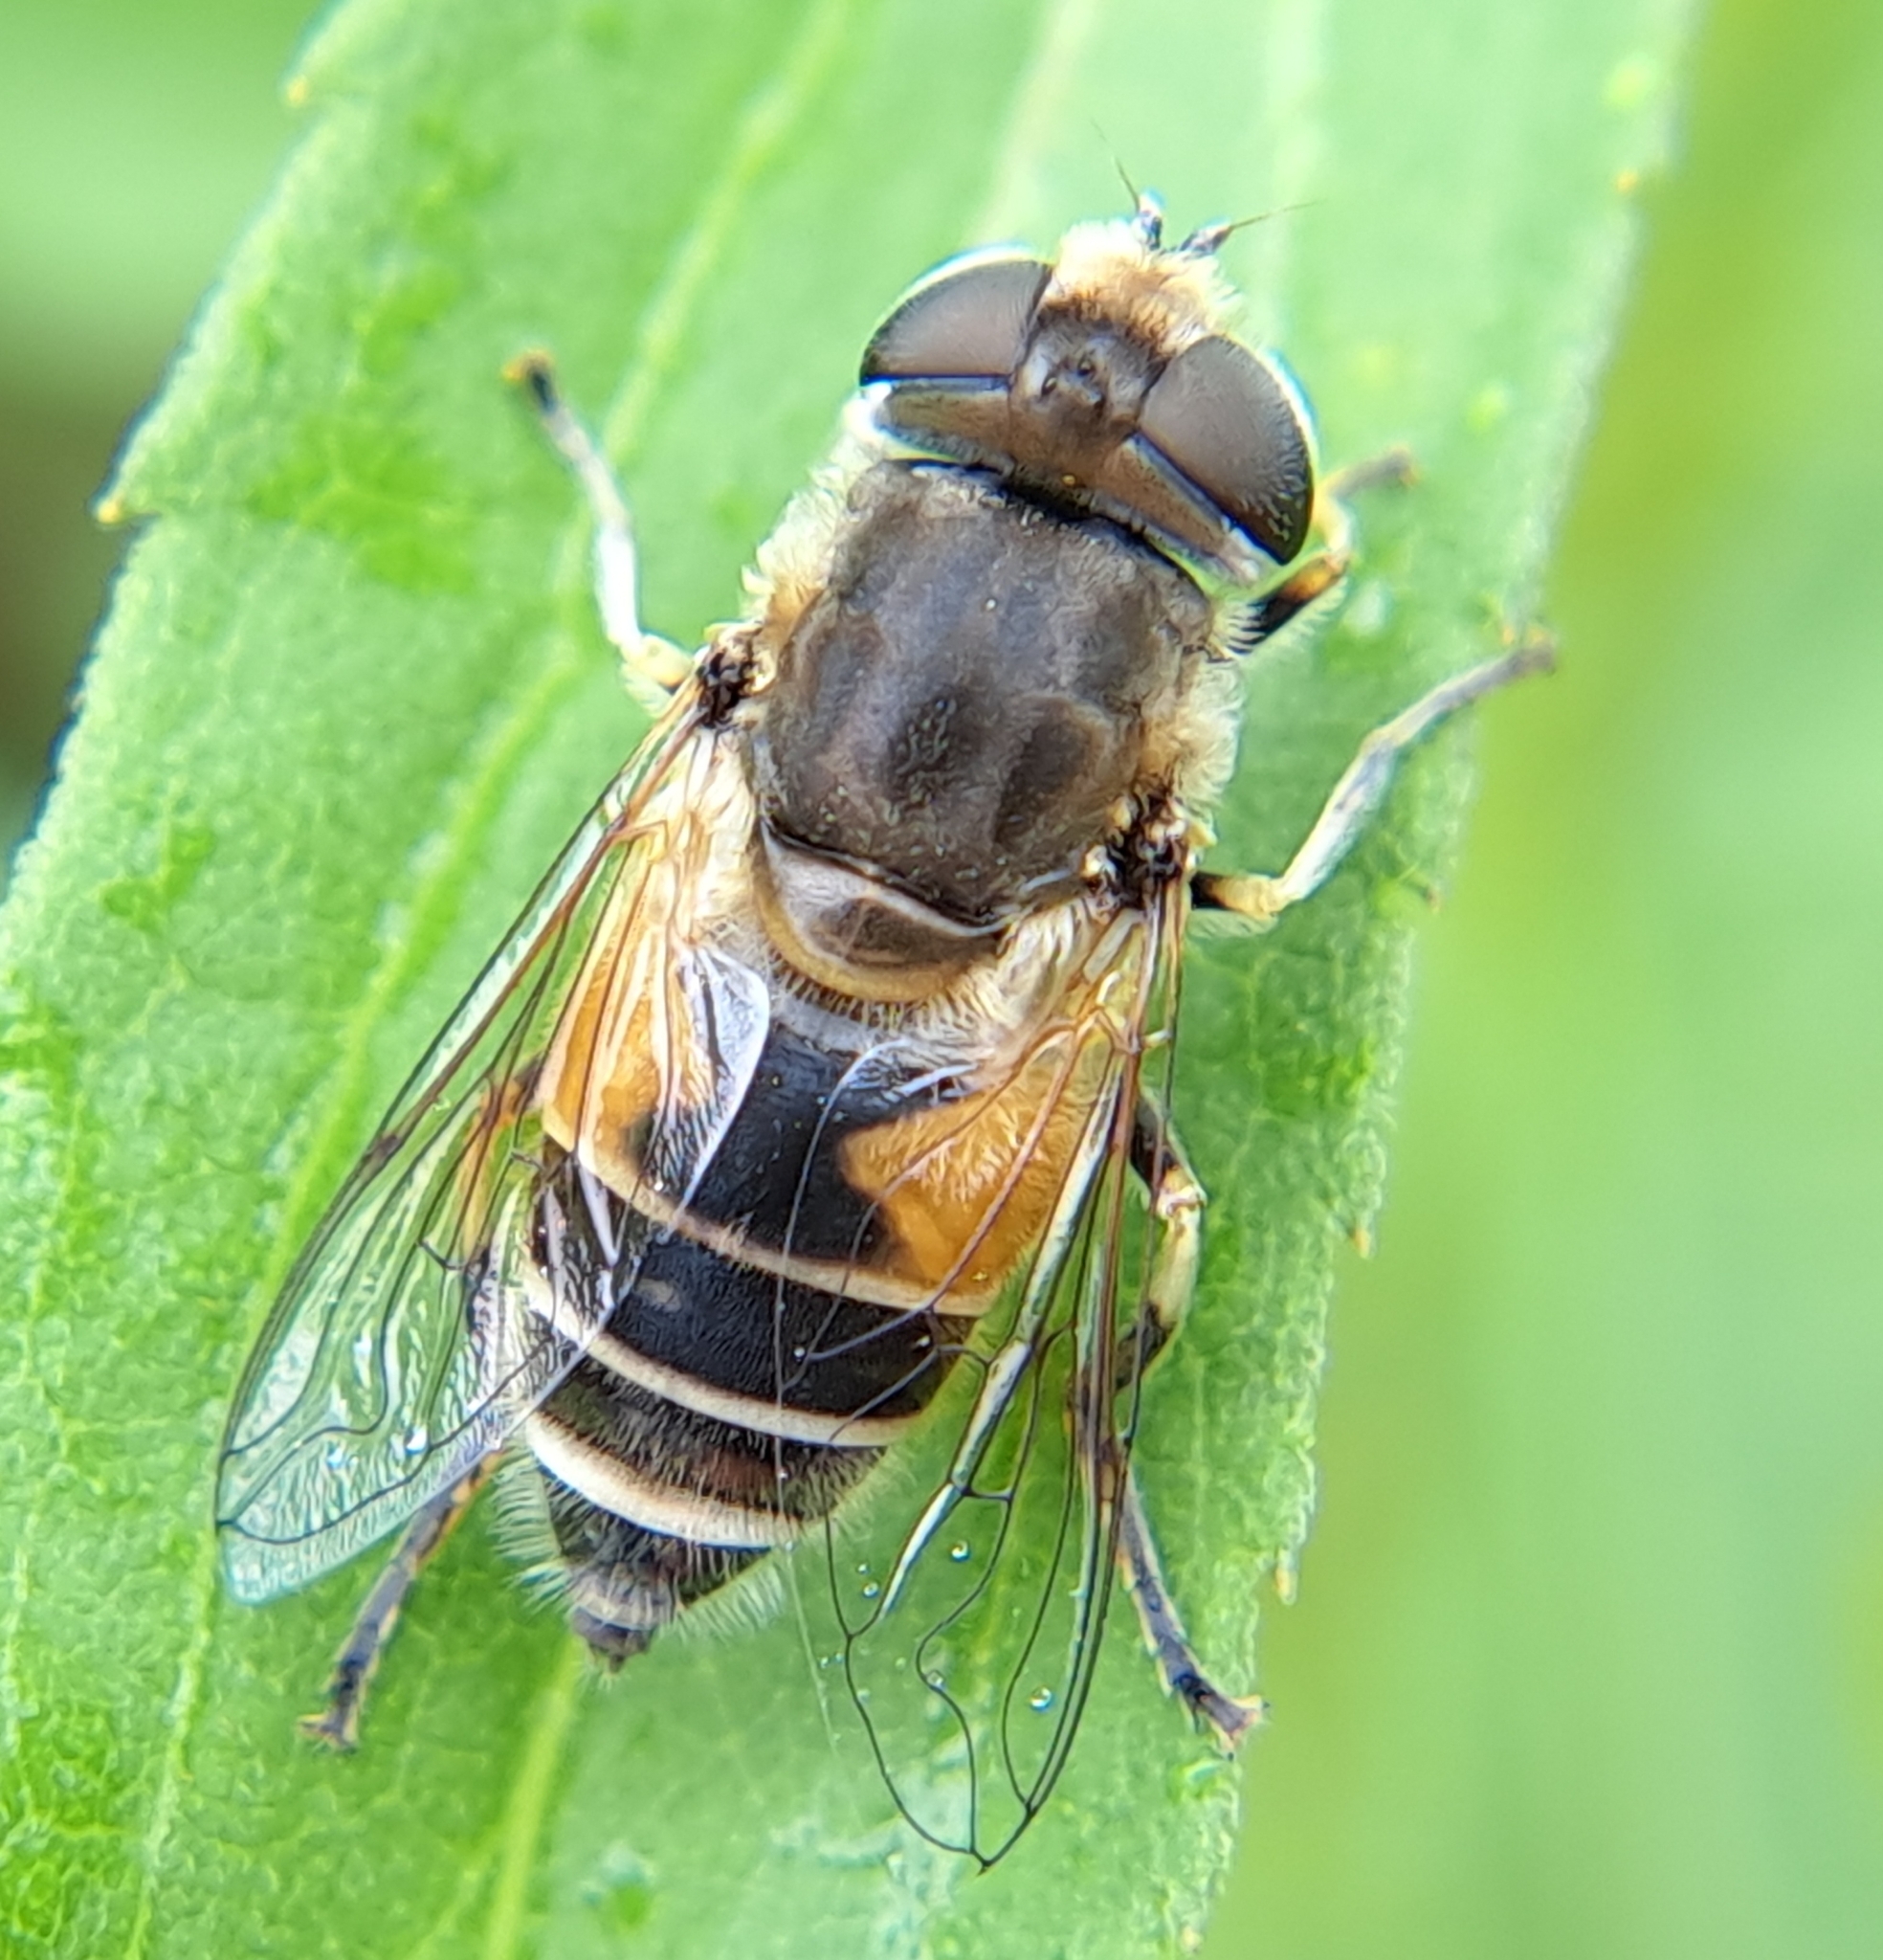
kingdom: Animalia
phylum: Arthropoda
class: Insecta
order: Diptera
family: Syrphidae
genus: Eristalis
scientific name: Eristalis arbustorum
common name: Hover fly
